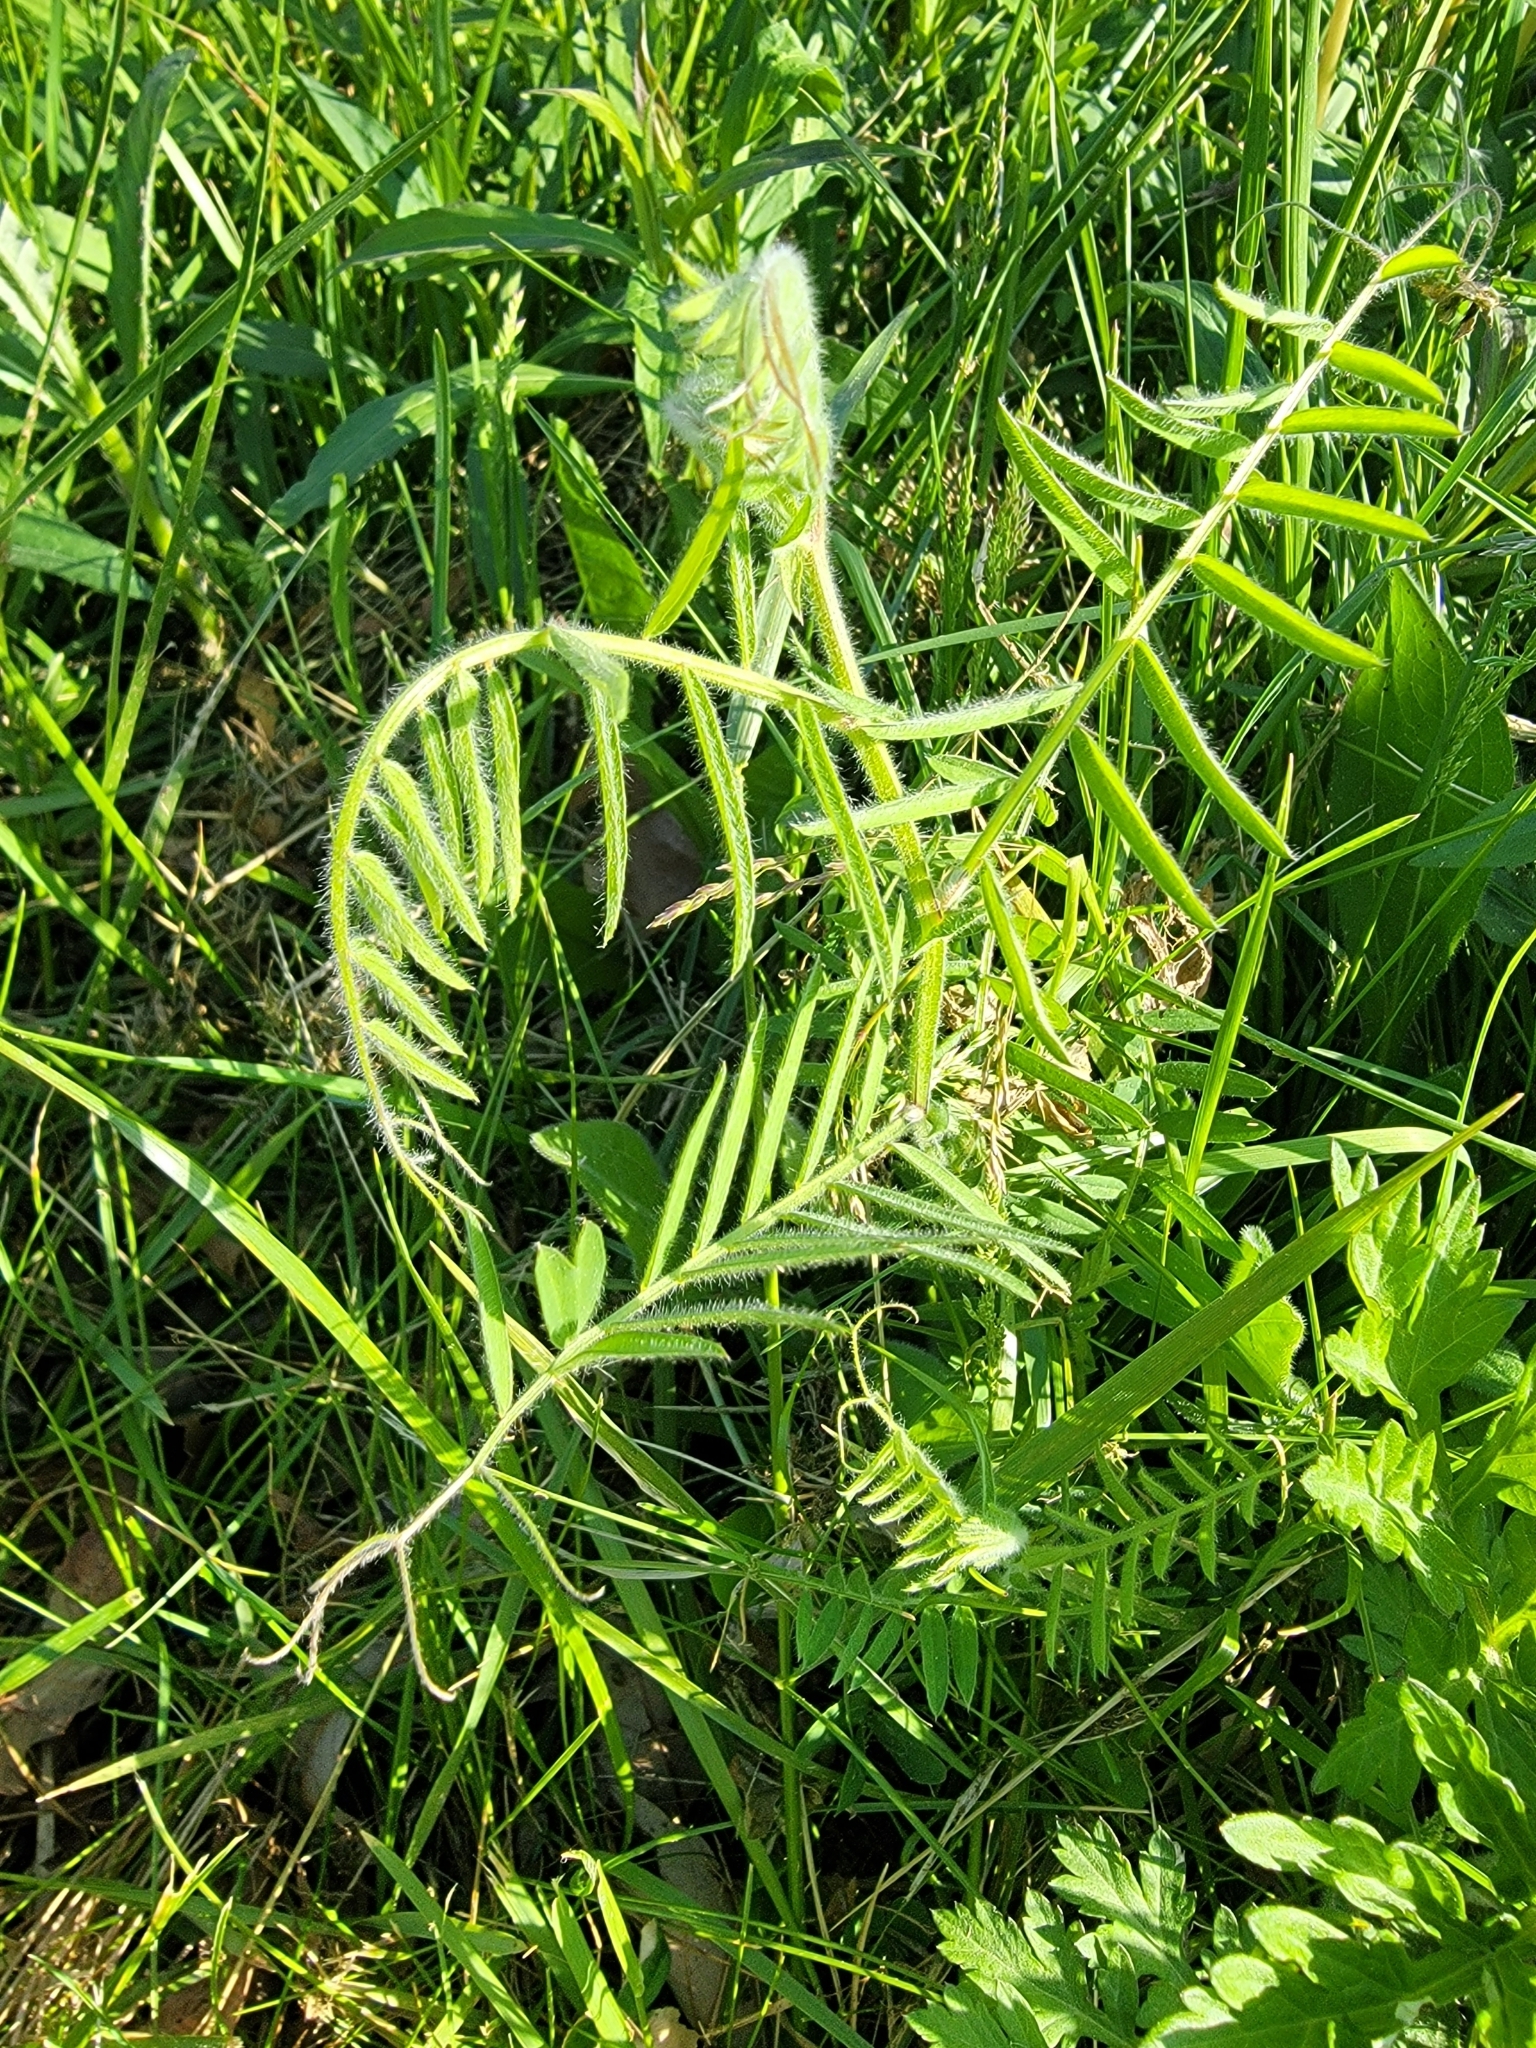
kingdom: Plantae
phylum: Tracheophyta
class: Magnoliopsida
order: Fabales
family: Fabaceae
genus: Vicia
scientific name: Vicia villosa
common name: Fodder vetch
